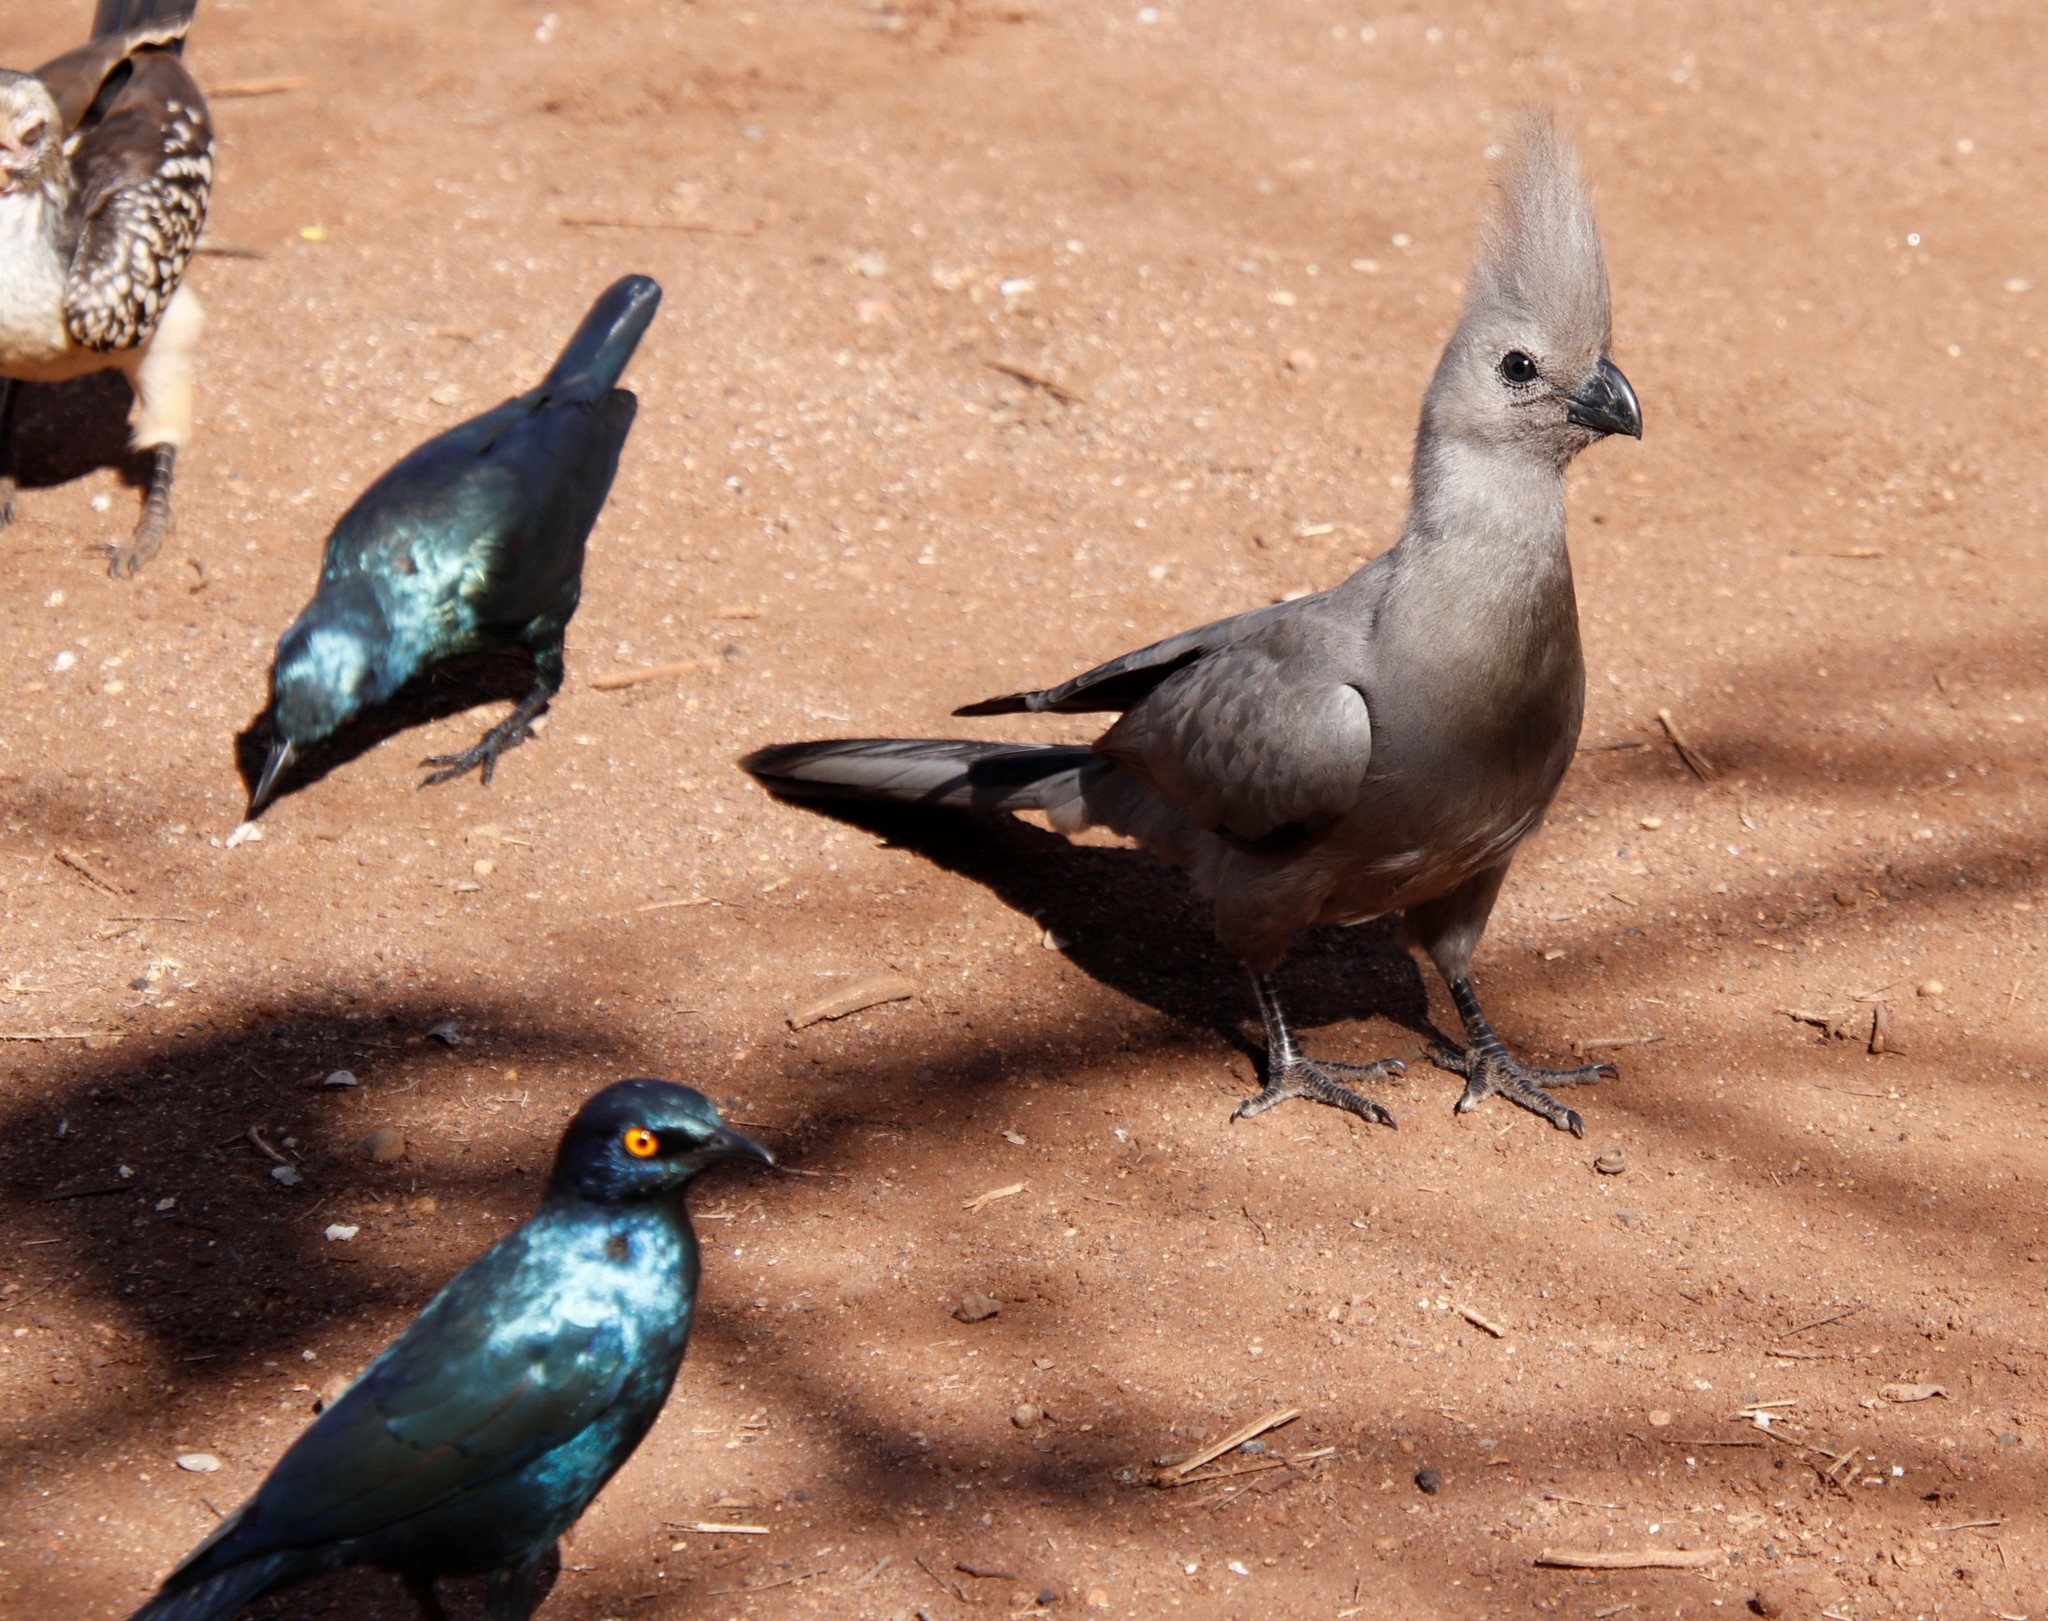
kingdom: Animalia
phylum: Chordata
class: Aves
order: Musophagiformes
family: Musophagidae
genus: Corythaixoides
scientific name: Corythaixoides concolor
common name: Grey go-away-bird
